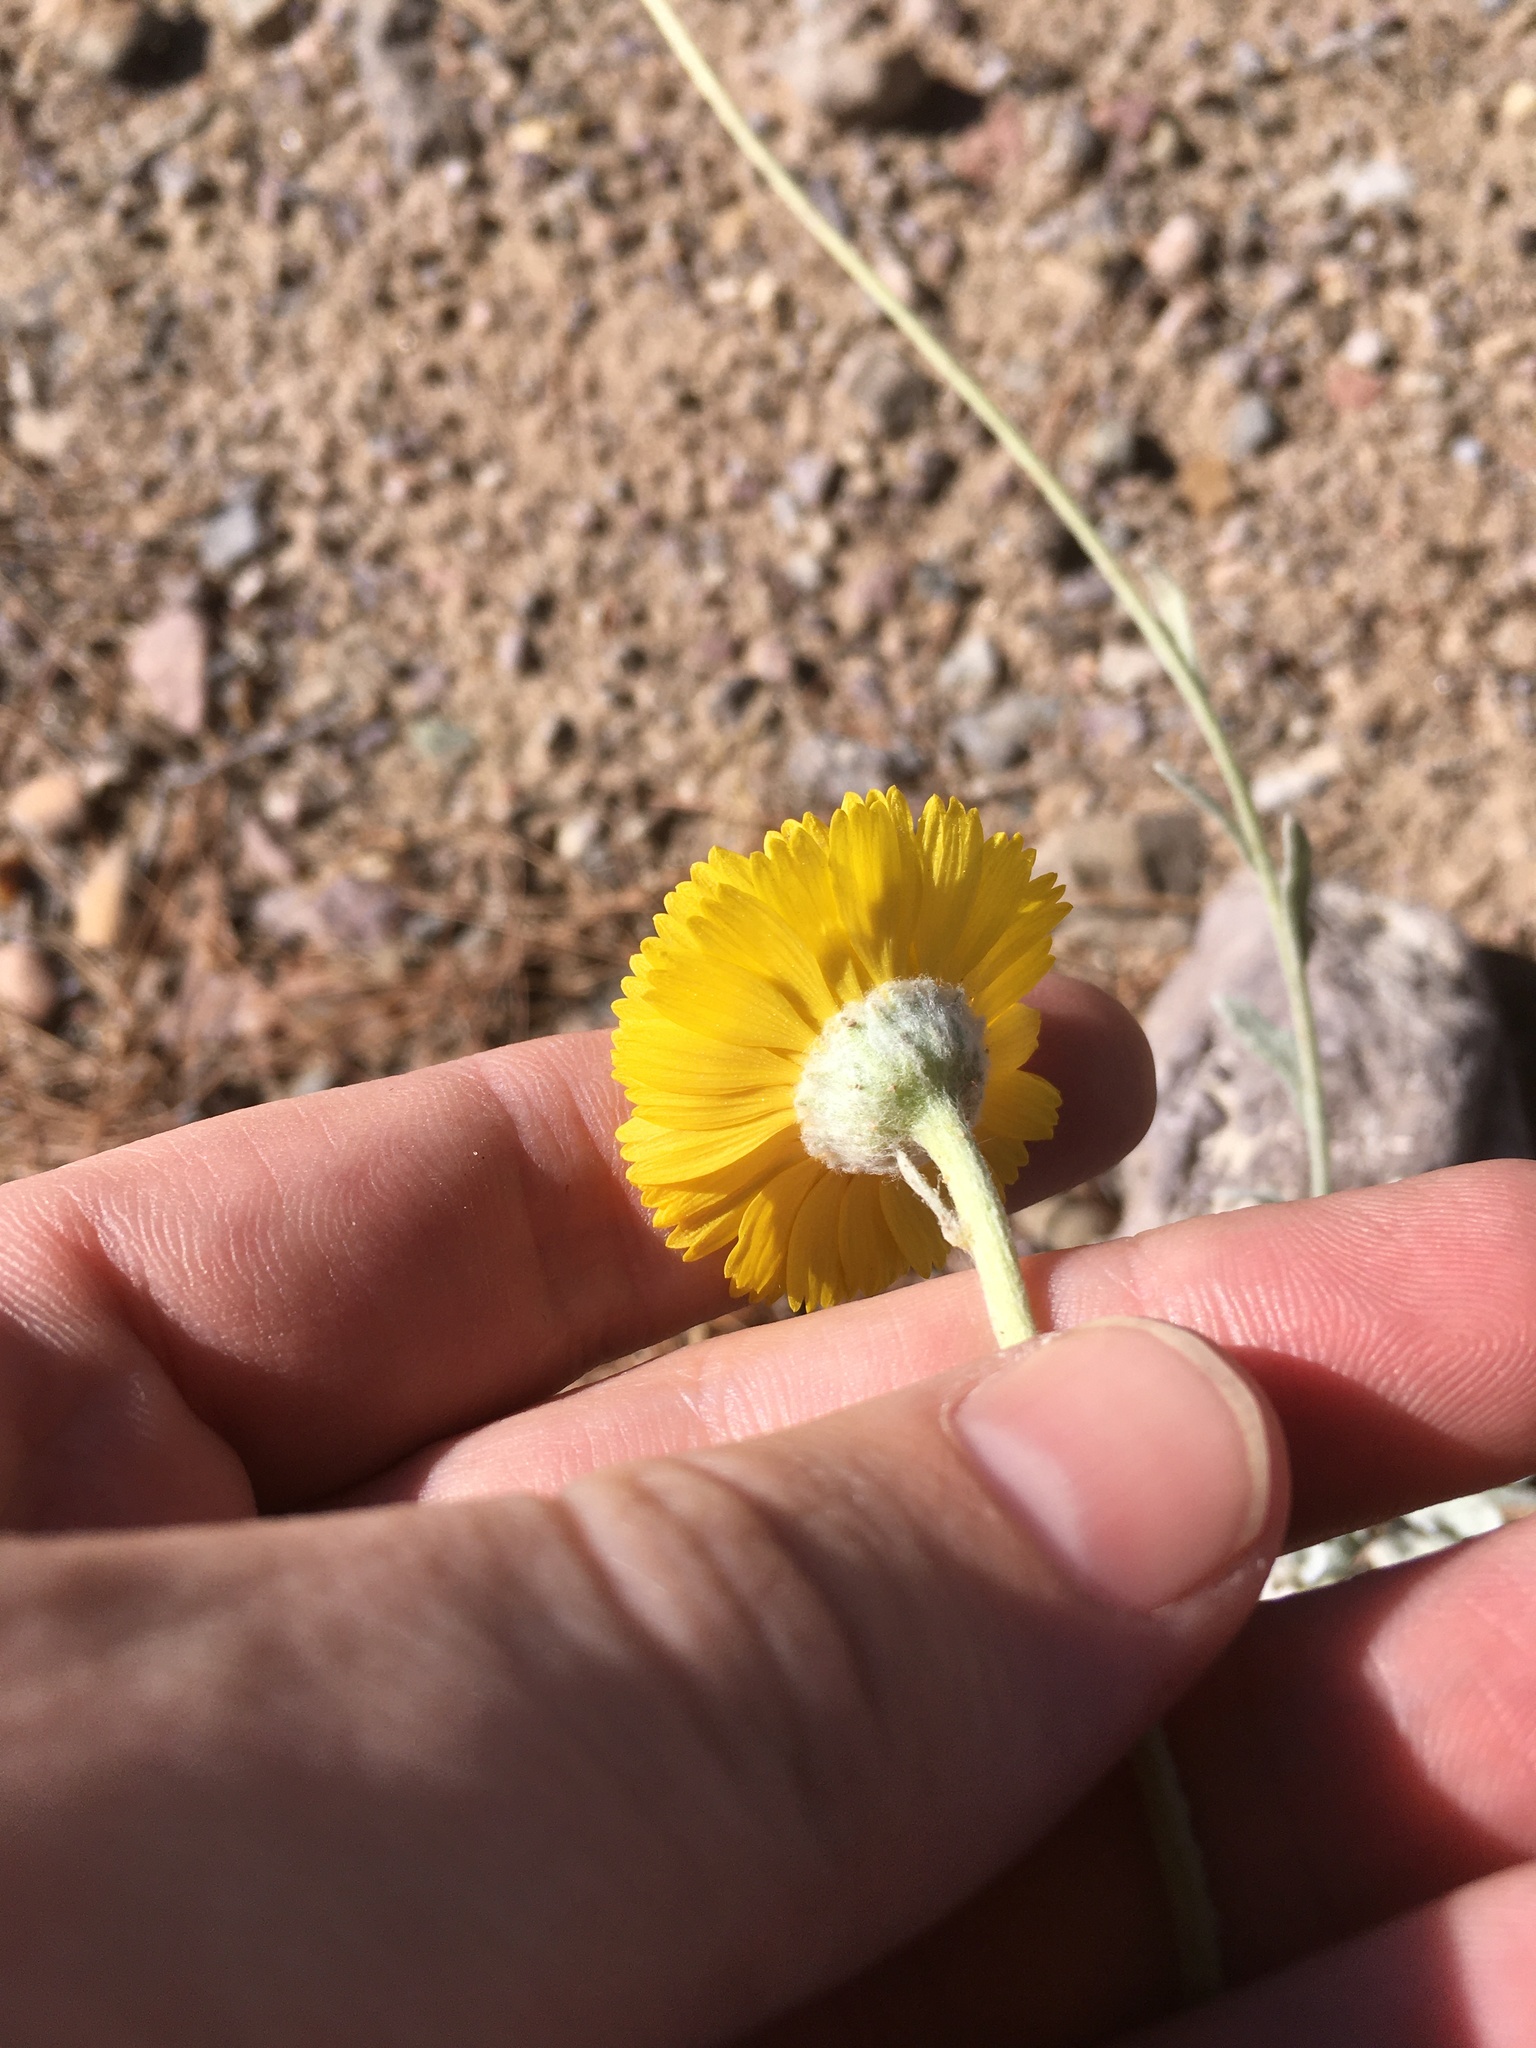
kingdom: Plantae
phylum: Tracheophyta
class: Magnoliopsida
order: Asterales
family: Asteraceae
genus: Baileya
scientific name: Baileya multiradiata
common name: Desert-marigold
